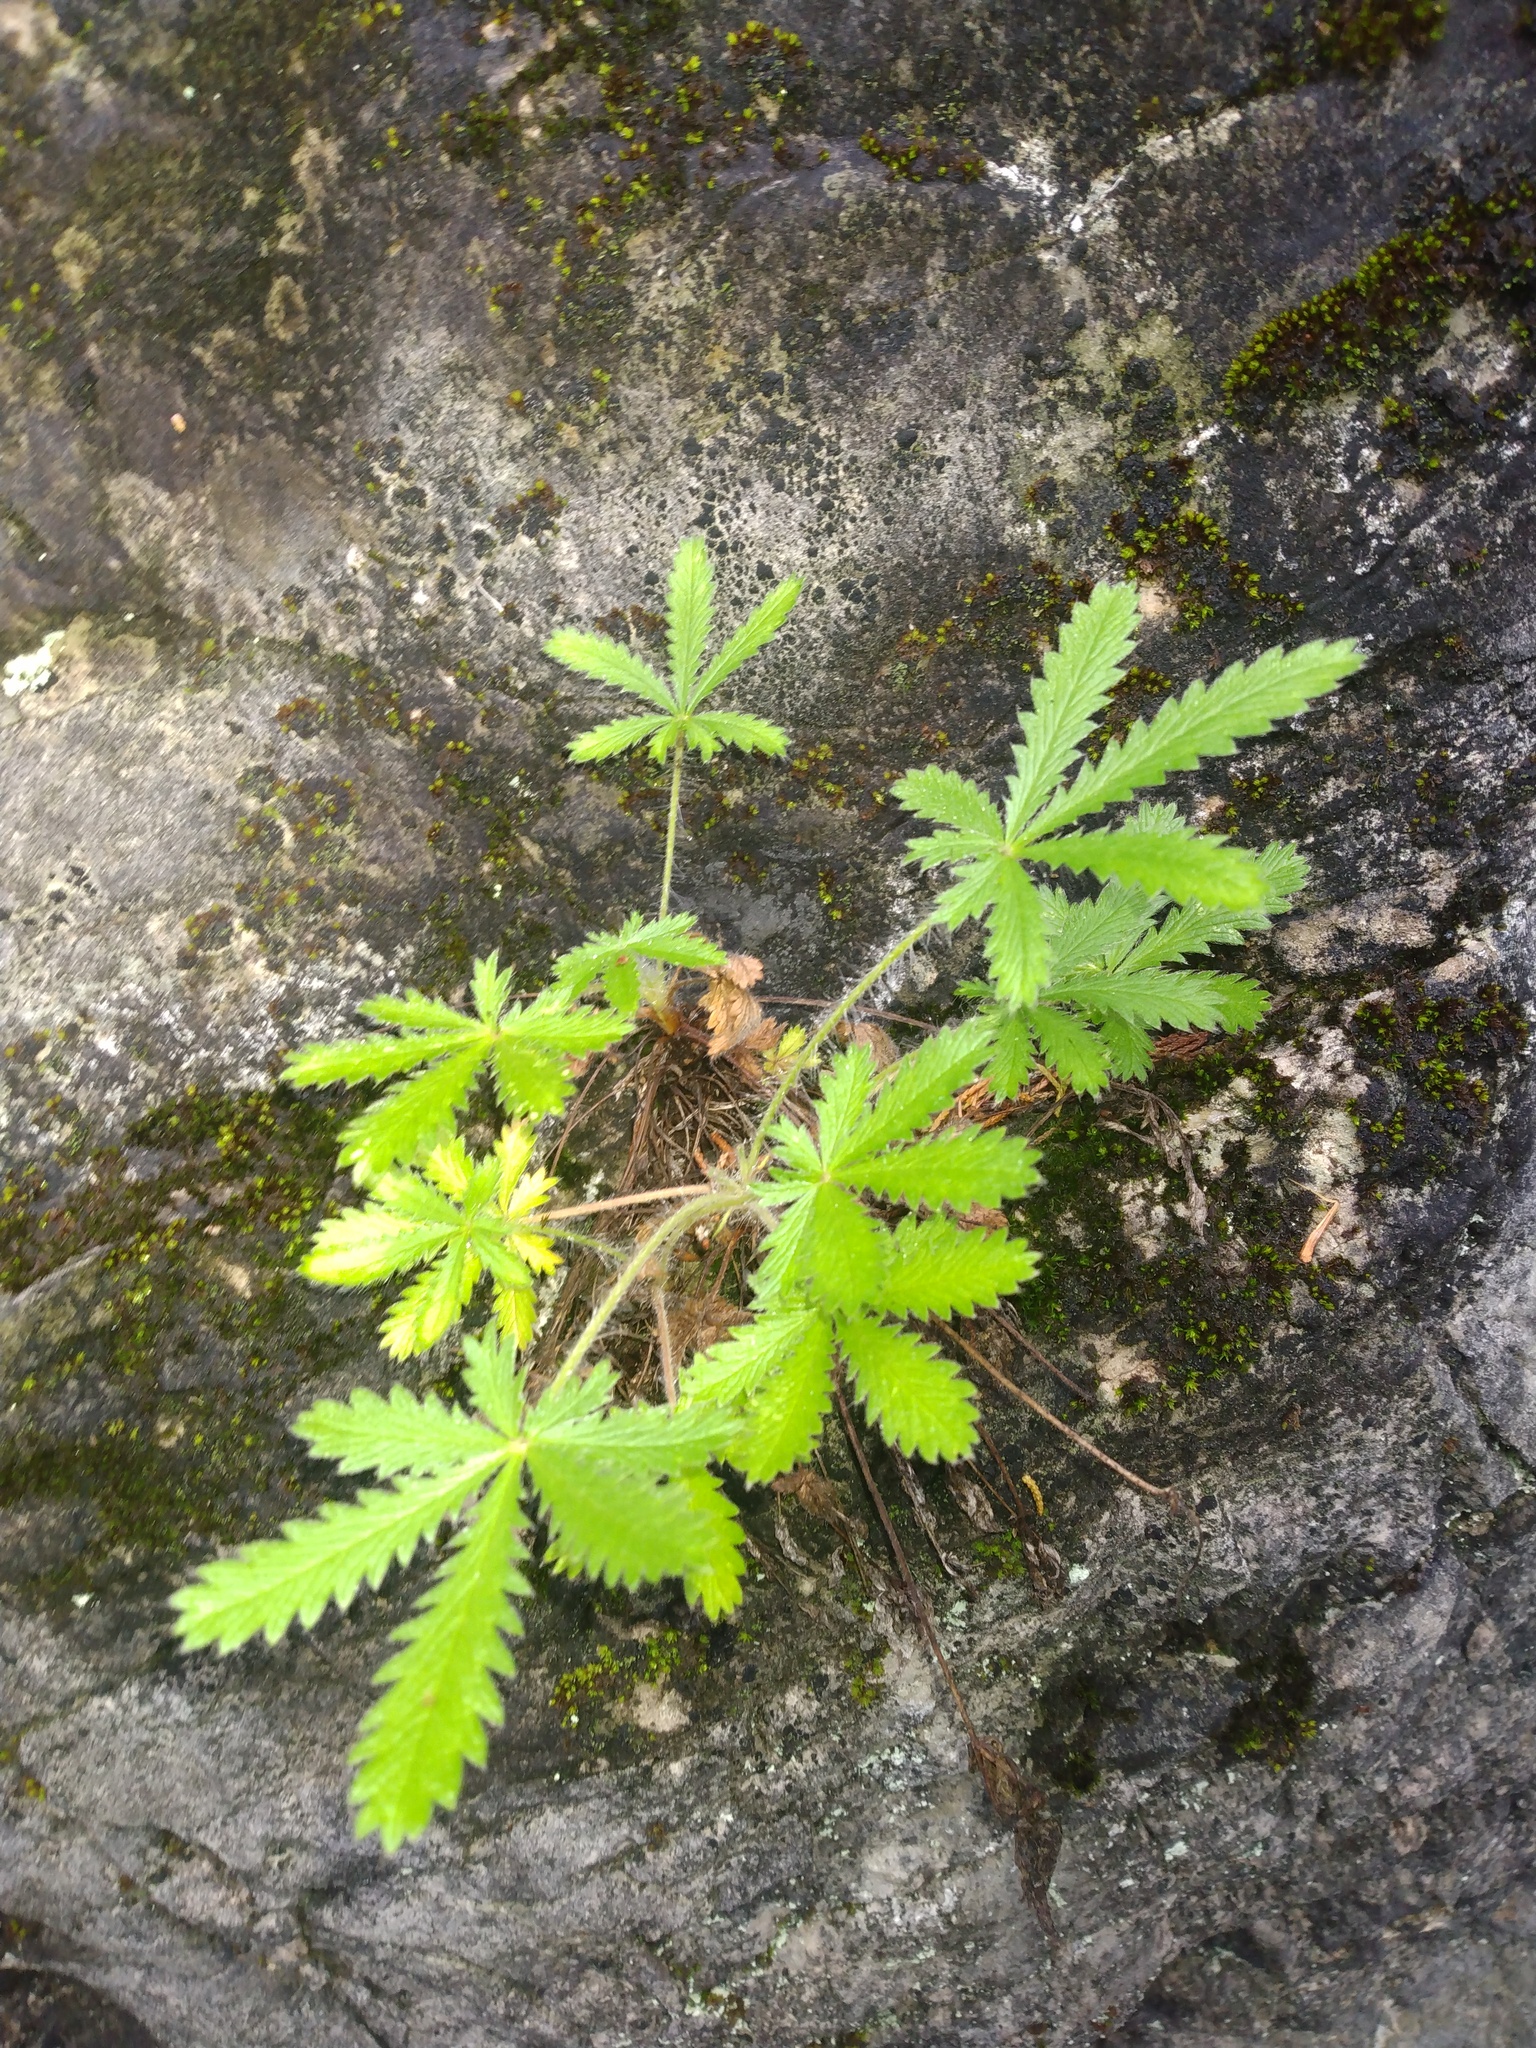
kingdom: Plantae
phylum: Tracheophyta
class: Magnoliopsida
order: Rosales
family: Rosaceae
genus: Potentilla
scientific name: Potentilla recta
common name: Sulphur cinquefoil
